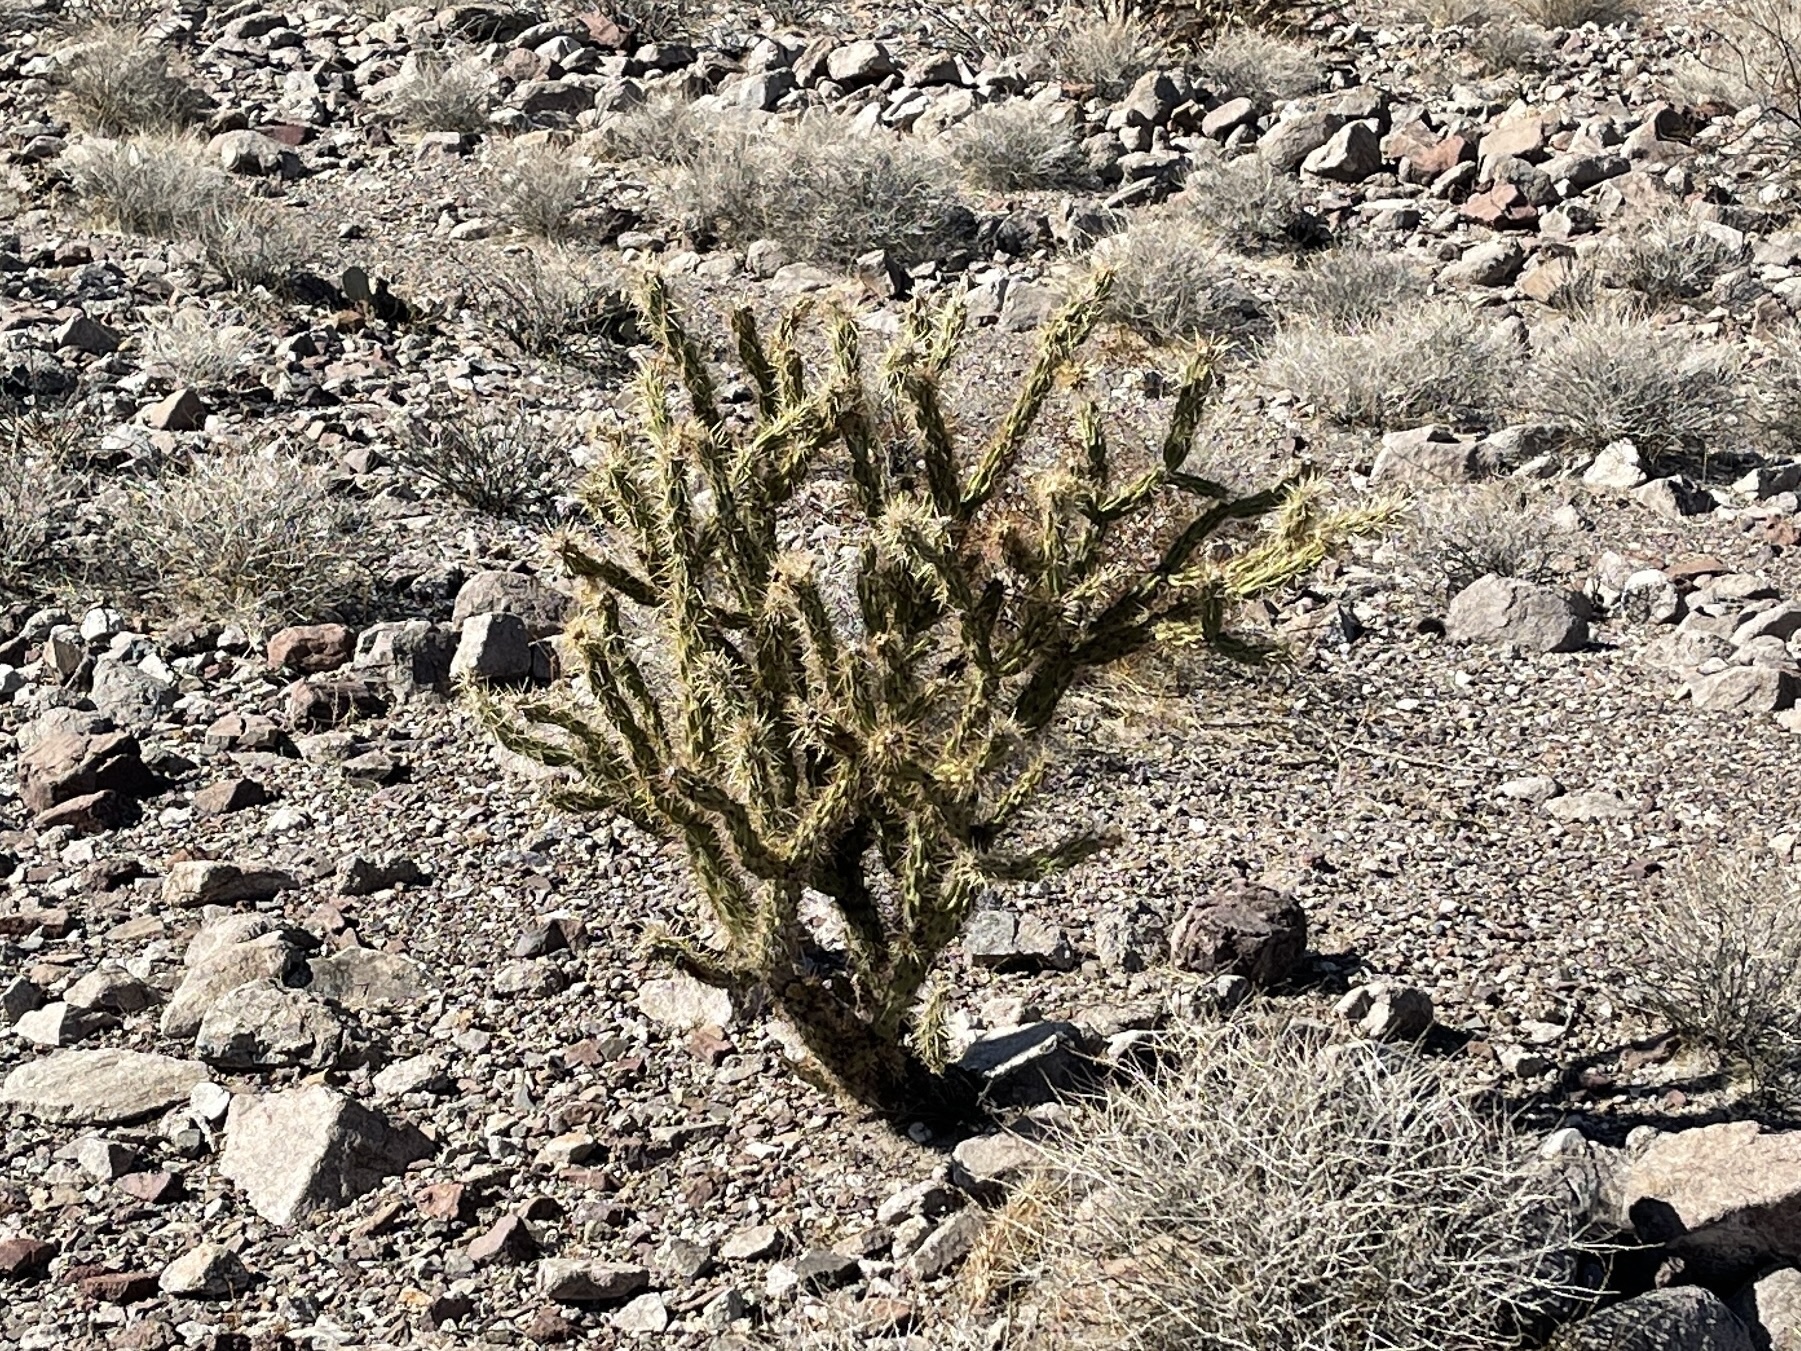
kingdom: Plantae
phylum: Tracheophyta
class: Magnoliopsida
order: Caryophyllales
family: Cactaceae
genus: Cylindropuntia
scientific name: Cylindropuntia acanthocarpa
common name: Buckhorn cholla
